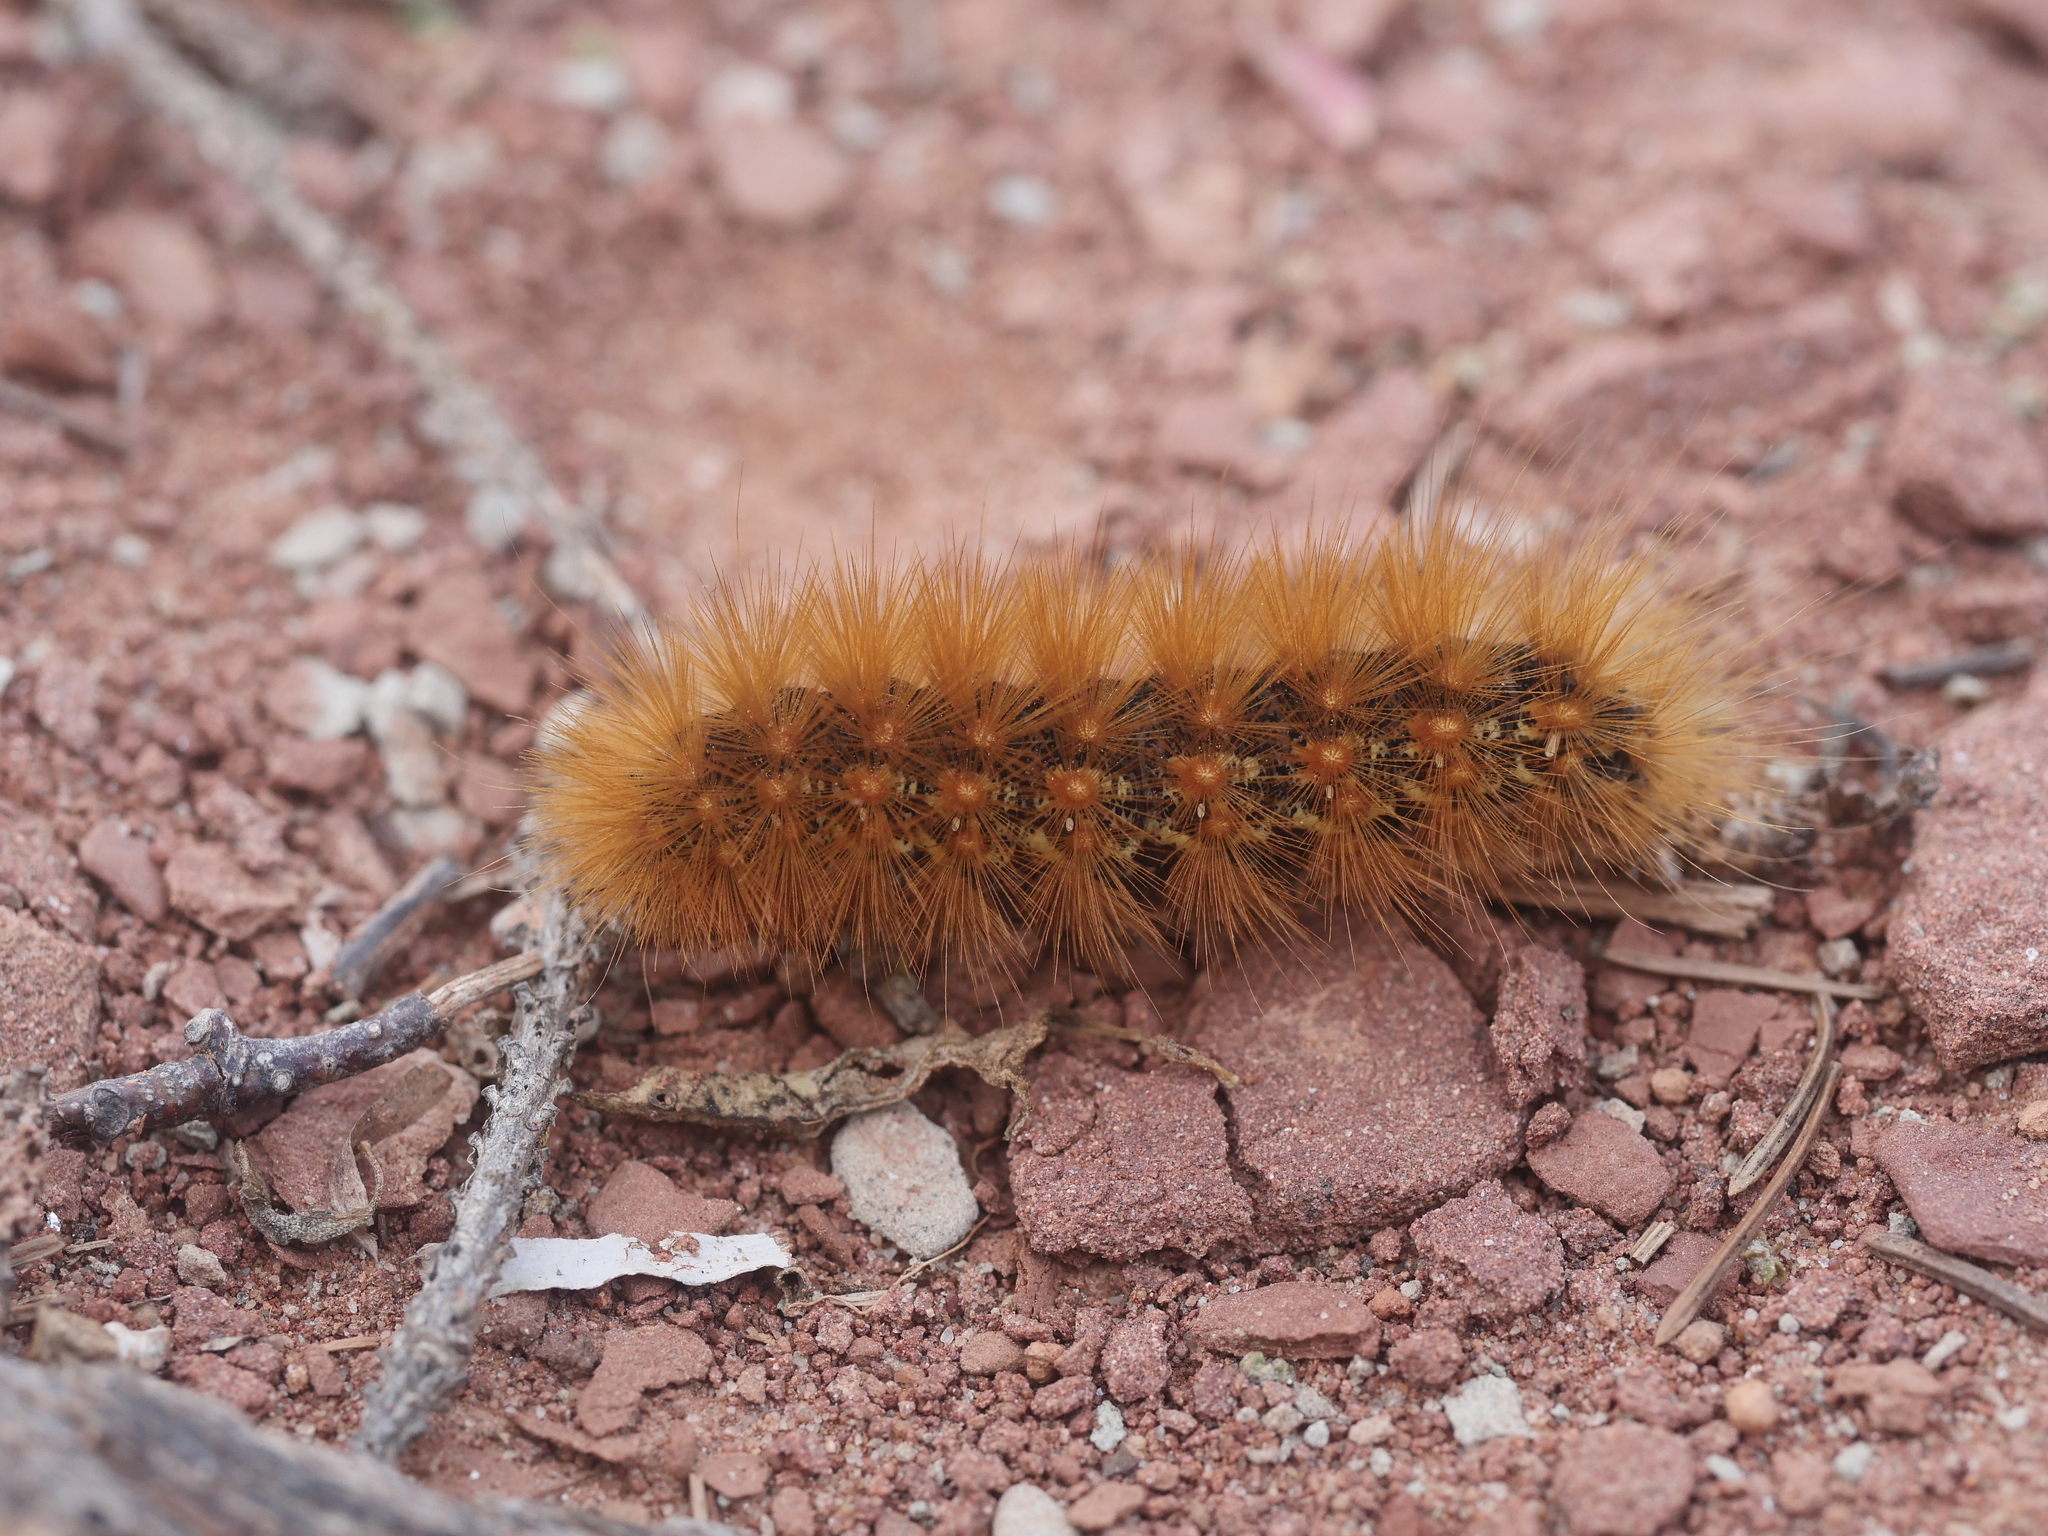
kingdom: Animalia
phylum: Arthropoda
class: Insecta
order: Lepidoptera
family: Erebidae
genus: Spilosoma
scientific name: Spilosoma virginica
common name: Virginia tiger moth
